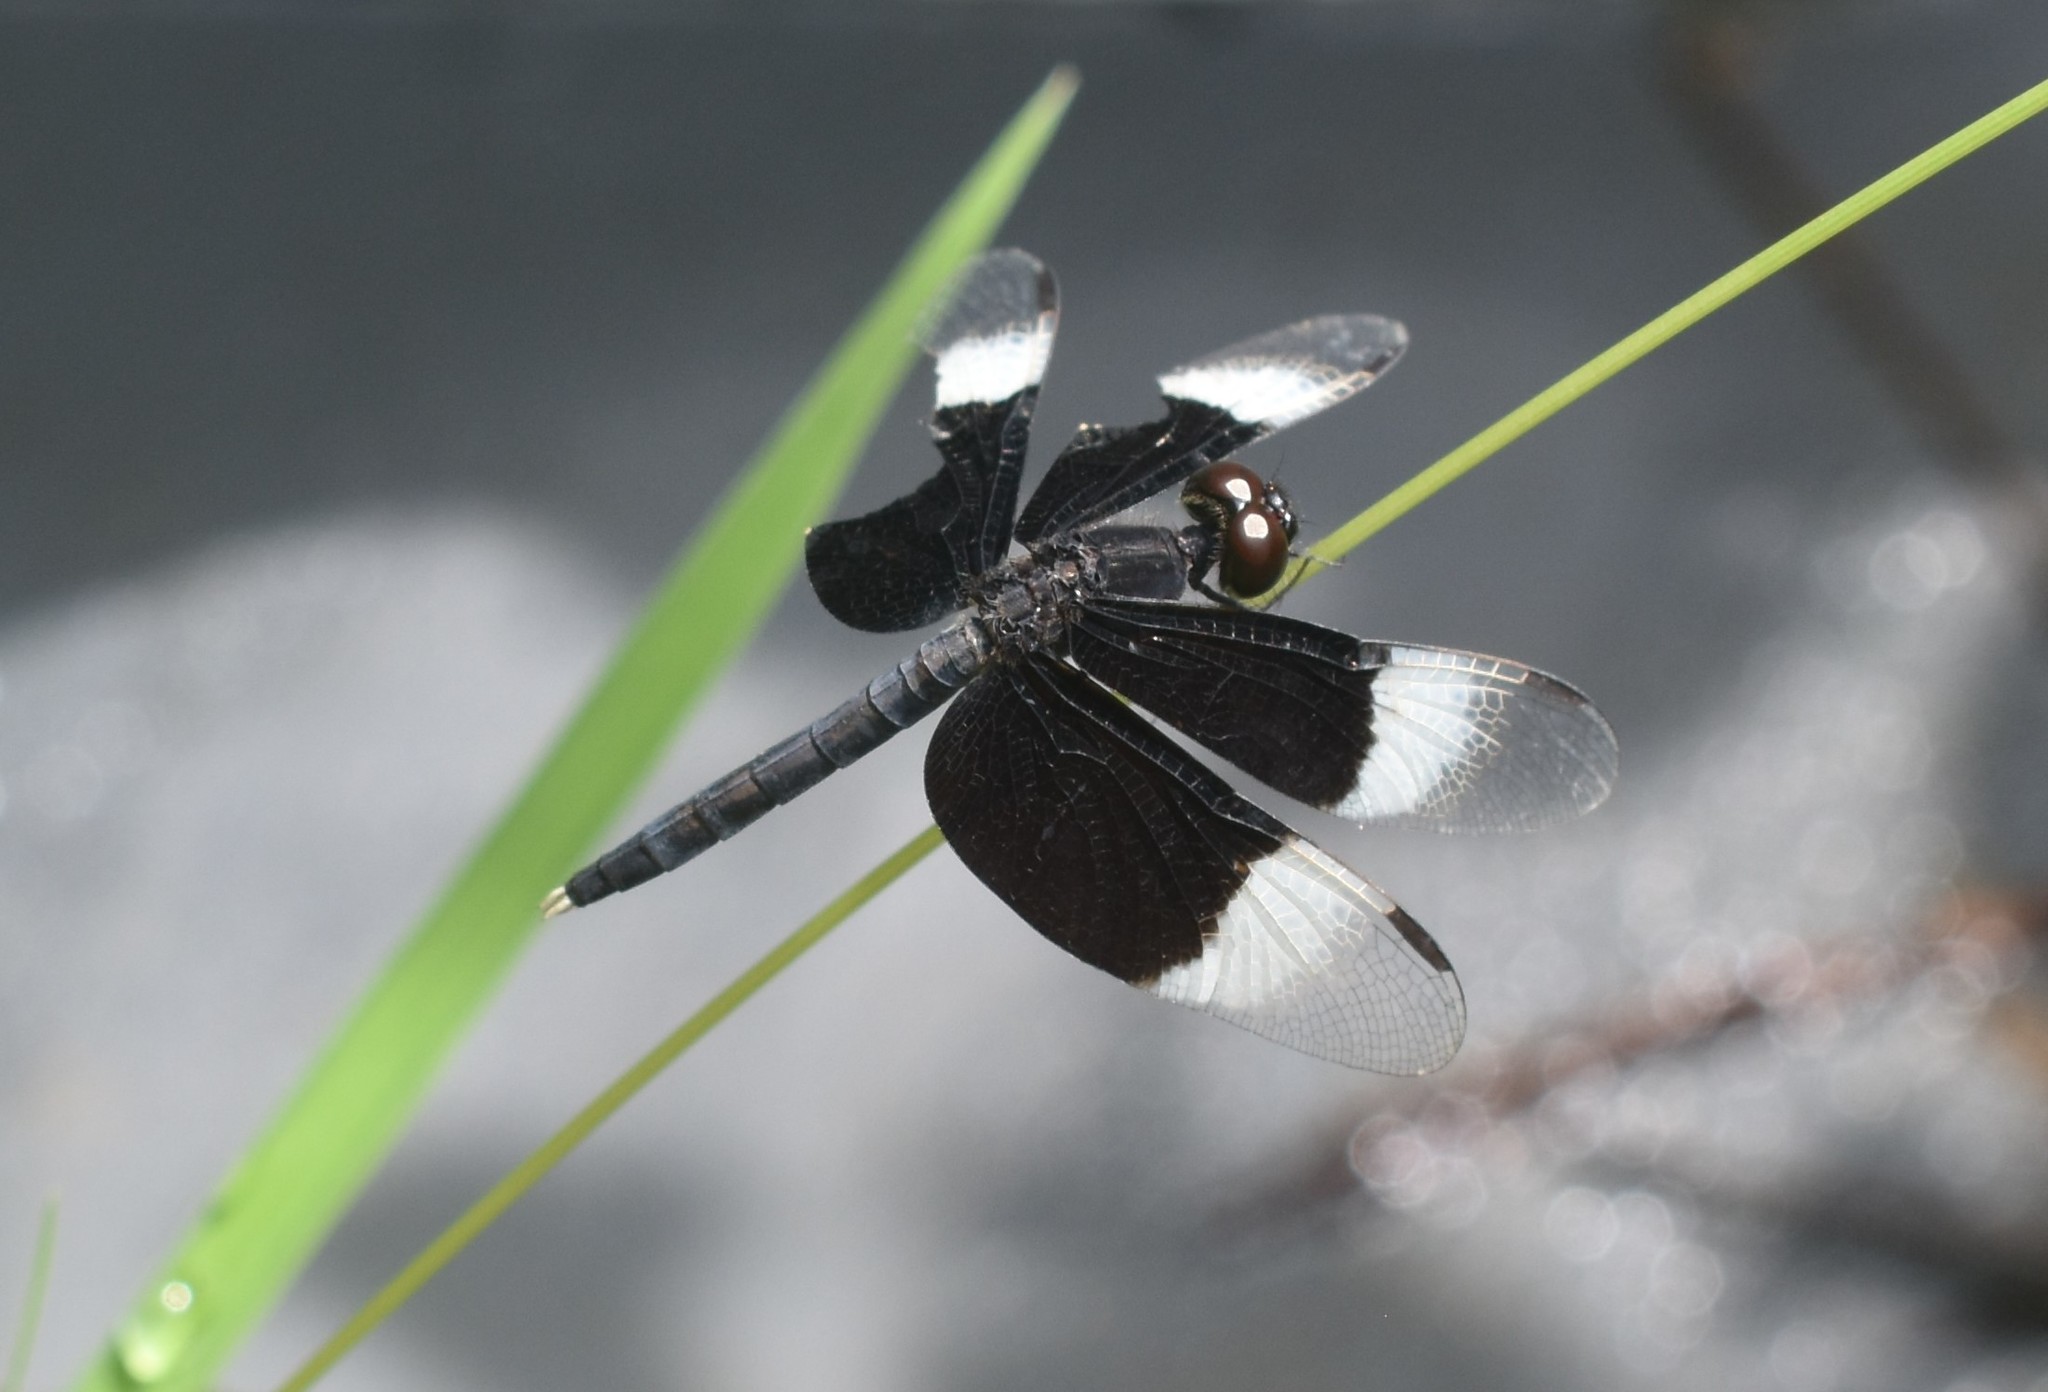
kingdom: Animalia
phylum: Arthropoda
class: Insecta
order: Odonata
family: Libellulidae
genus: Neurothemis
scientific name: Neurothemis tullia
